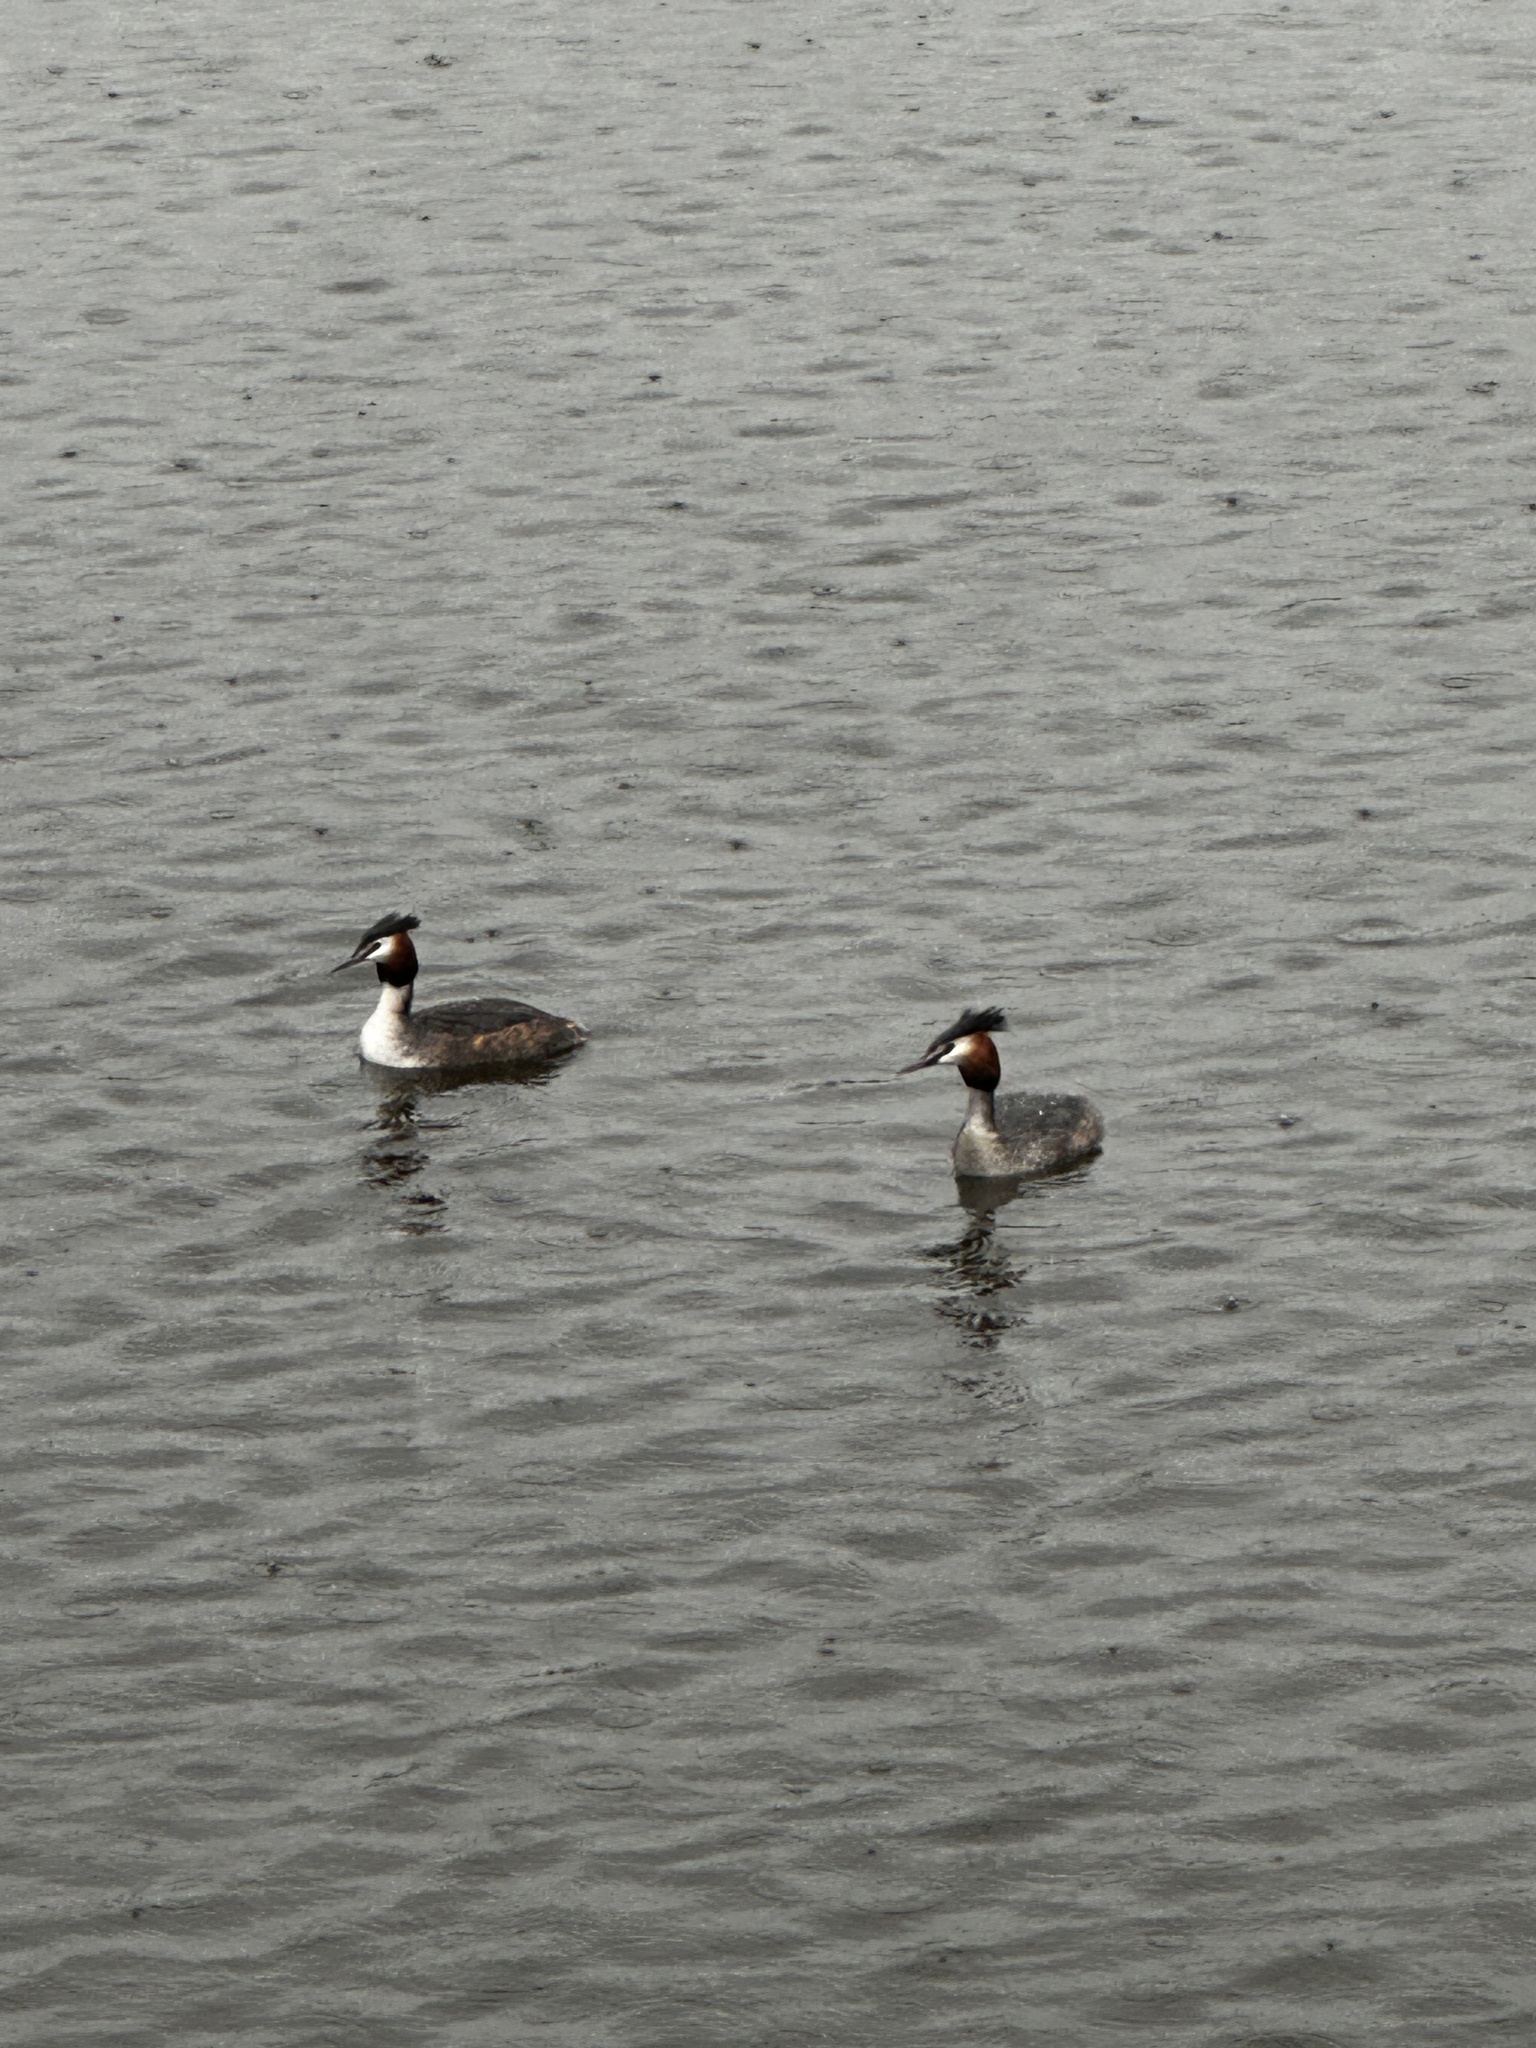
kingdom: Animalia
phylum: Chordata
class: Aves
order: Podicipediformes
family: Podicipedidae
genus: Podiceps
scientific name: Podiceps cristatus
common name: Great crested grebe
